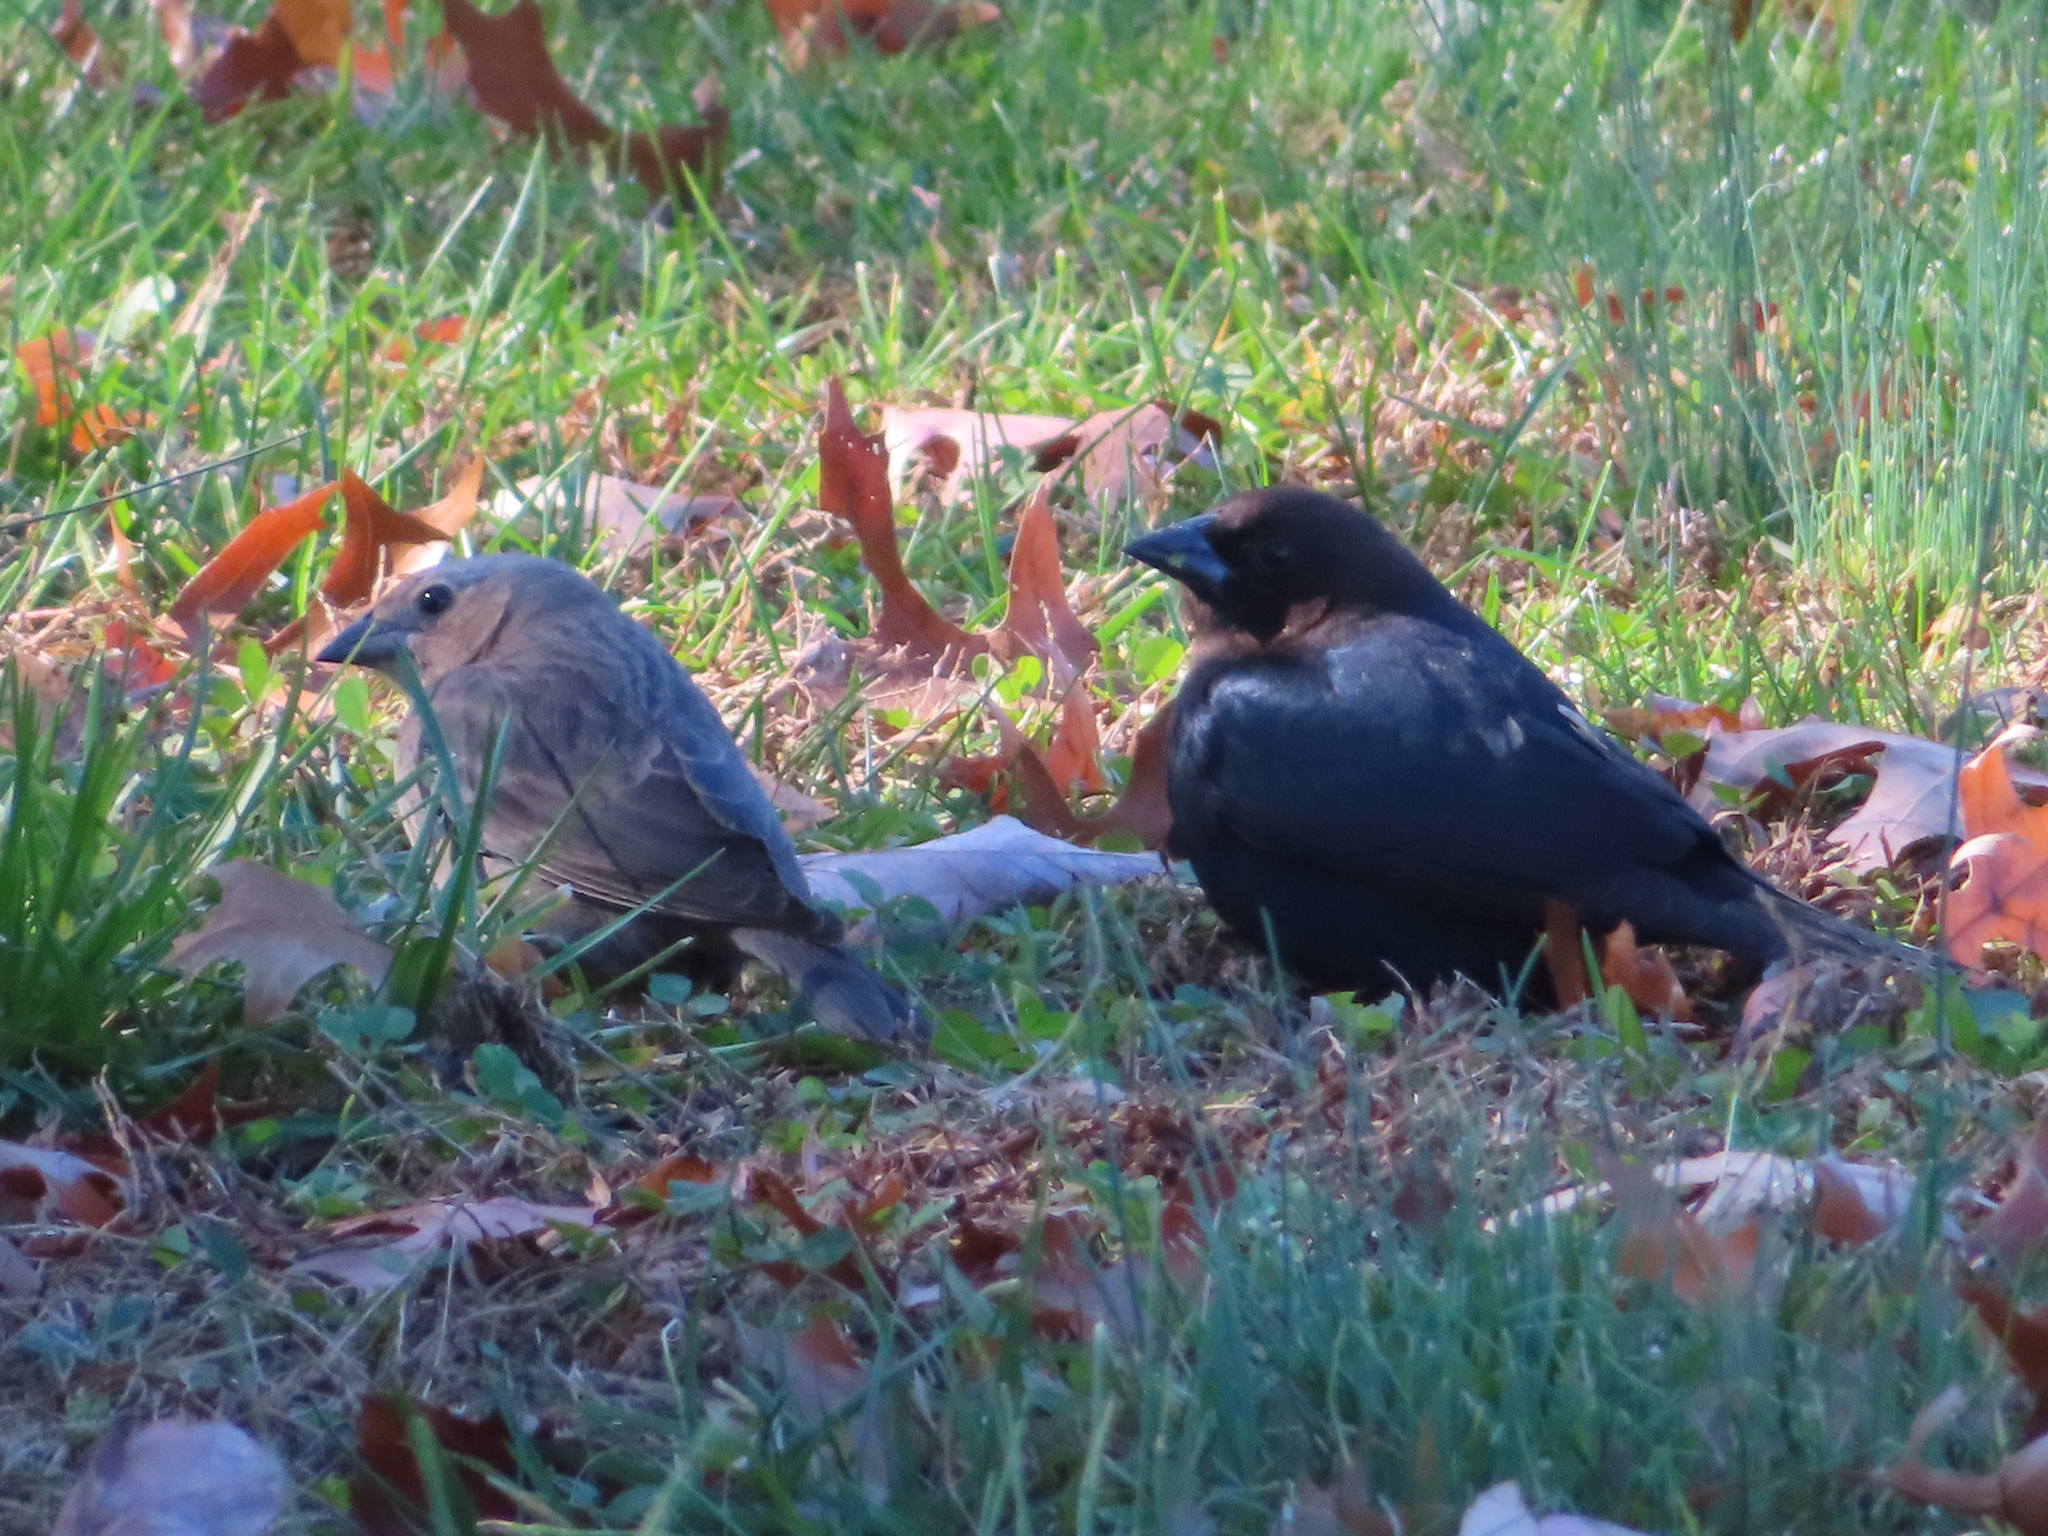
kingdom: Animalia
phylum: Chordata
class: Aves
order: Passeriformes
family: Icteridae
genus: Molothrus
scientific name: Molothrus ater
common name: Brown-headed cowbird
